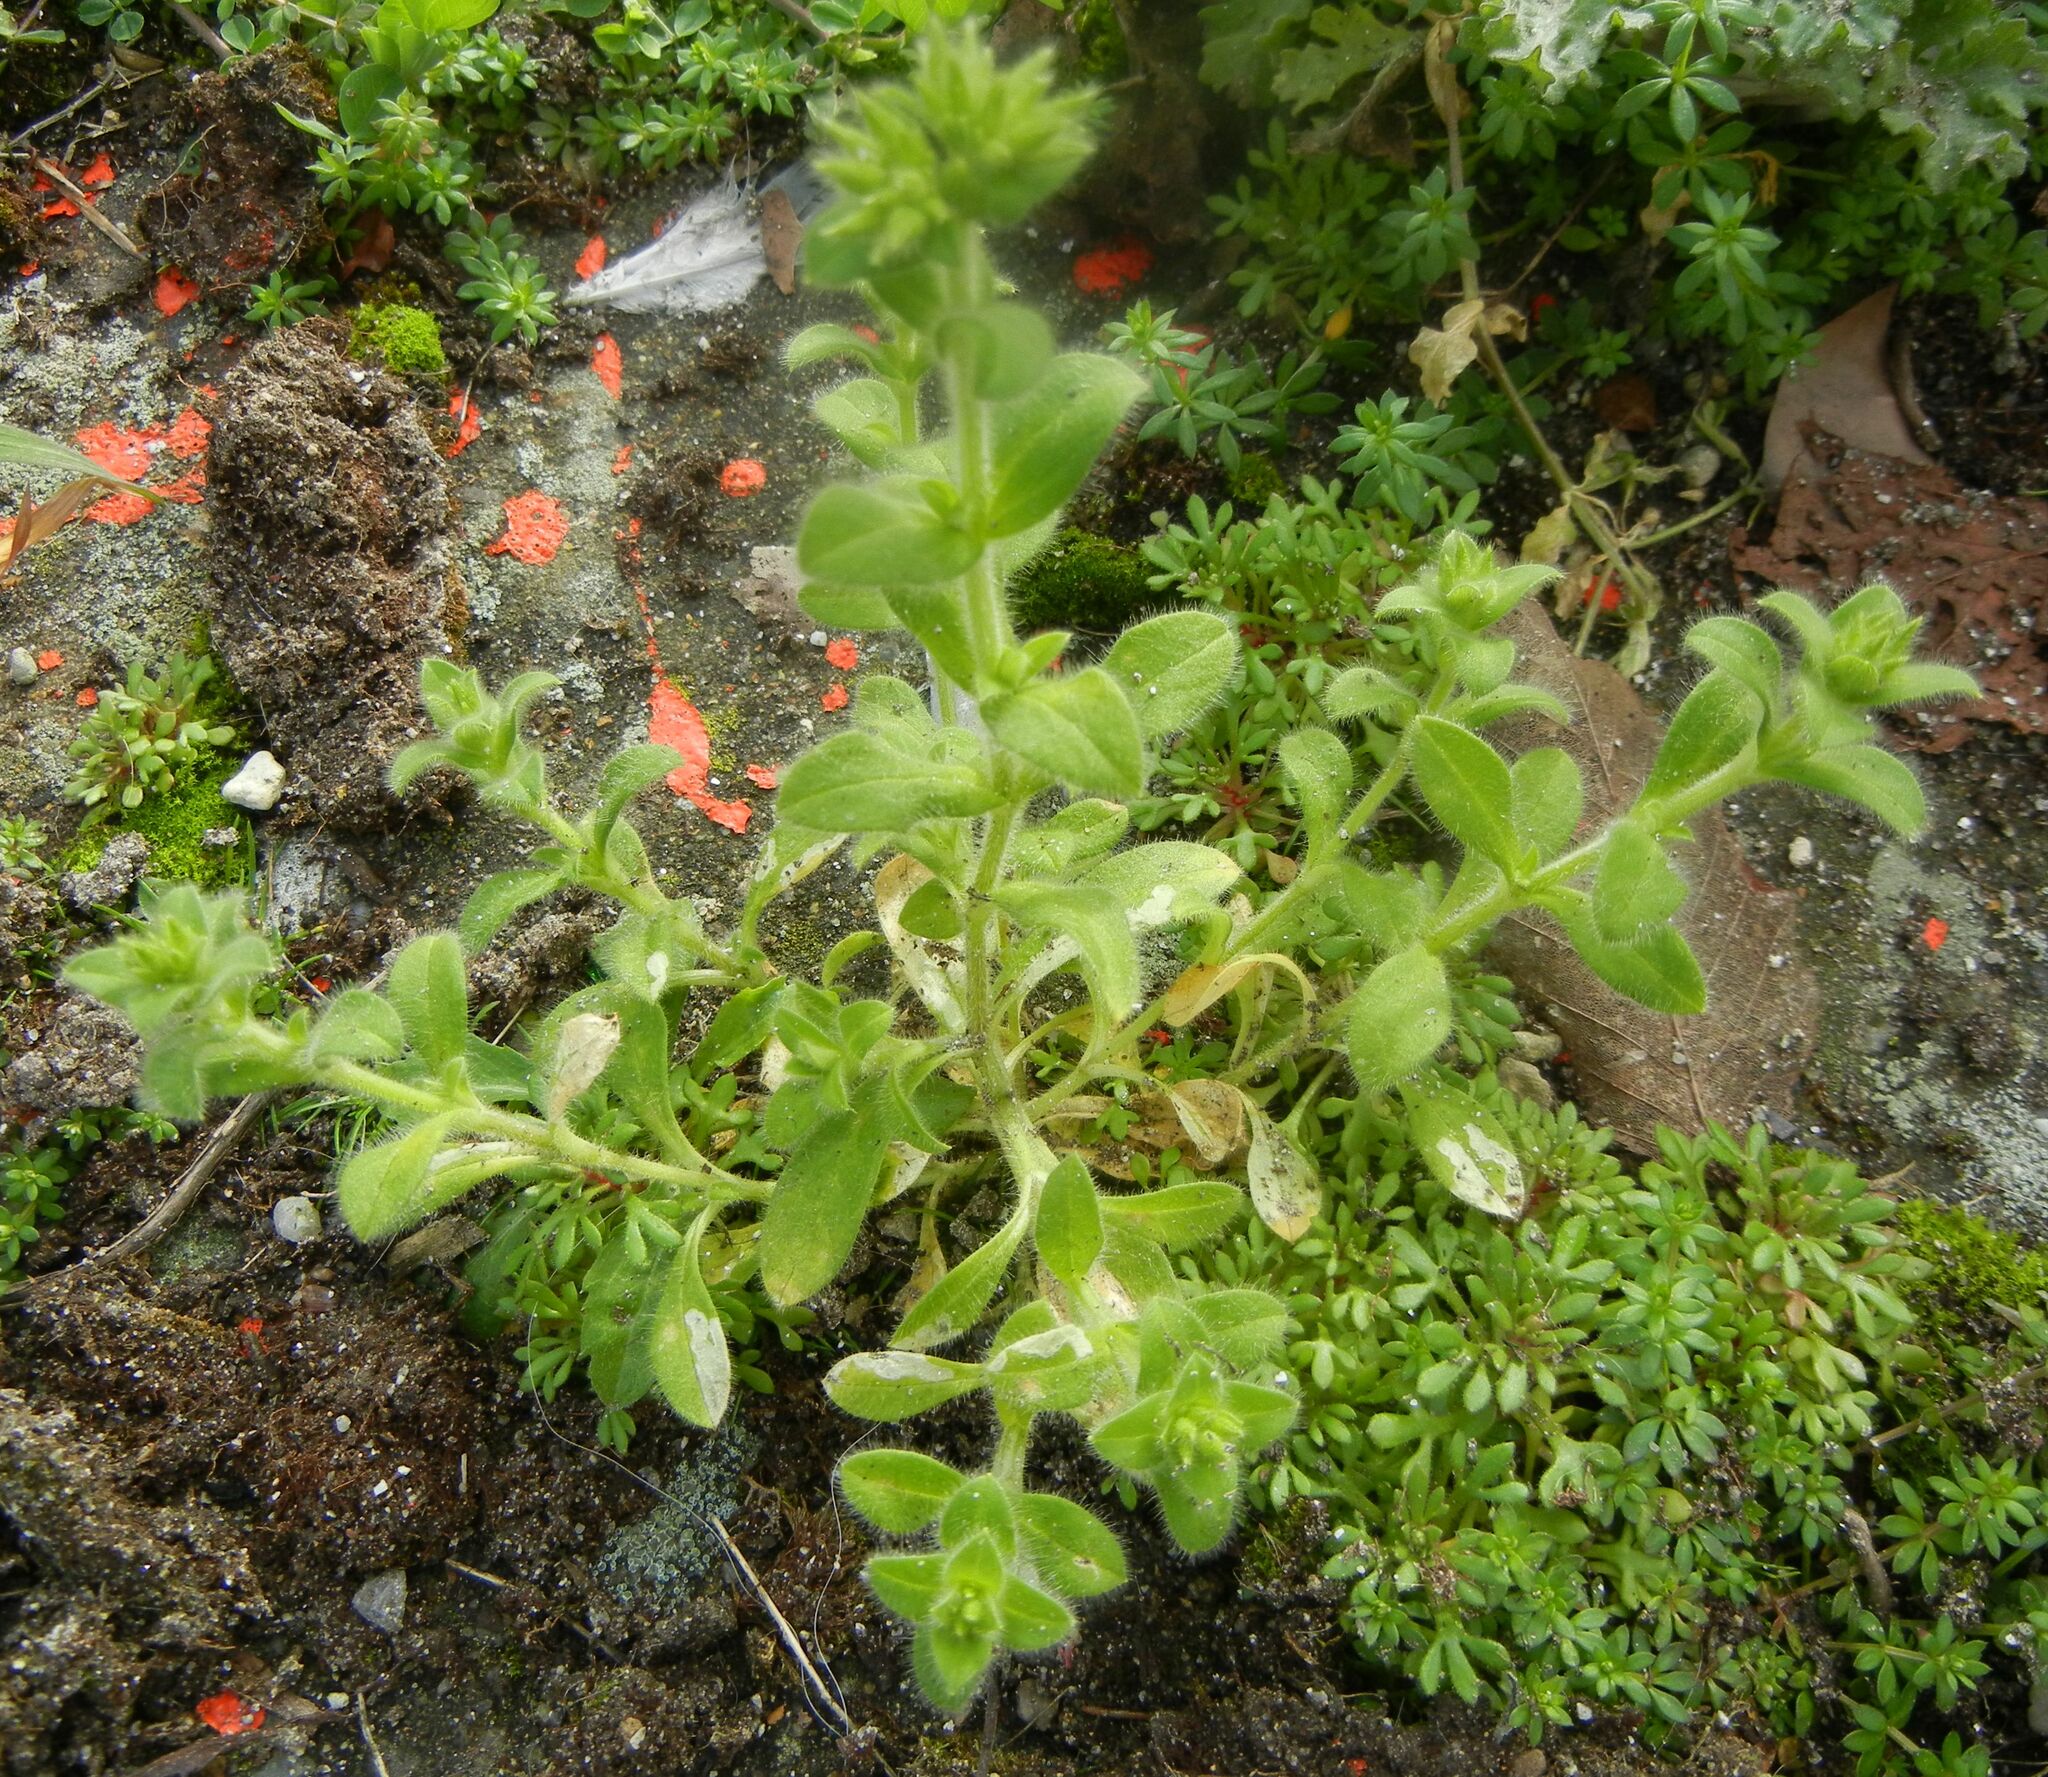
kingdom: Plantae
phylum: Tracheophyta
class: Magnoliopsida
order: Caryophyllales
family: Caryophyllaceae
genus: Cerastium
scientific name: Cerastium glomeratum
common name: Sticky chickweed
